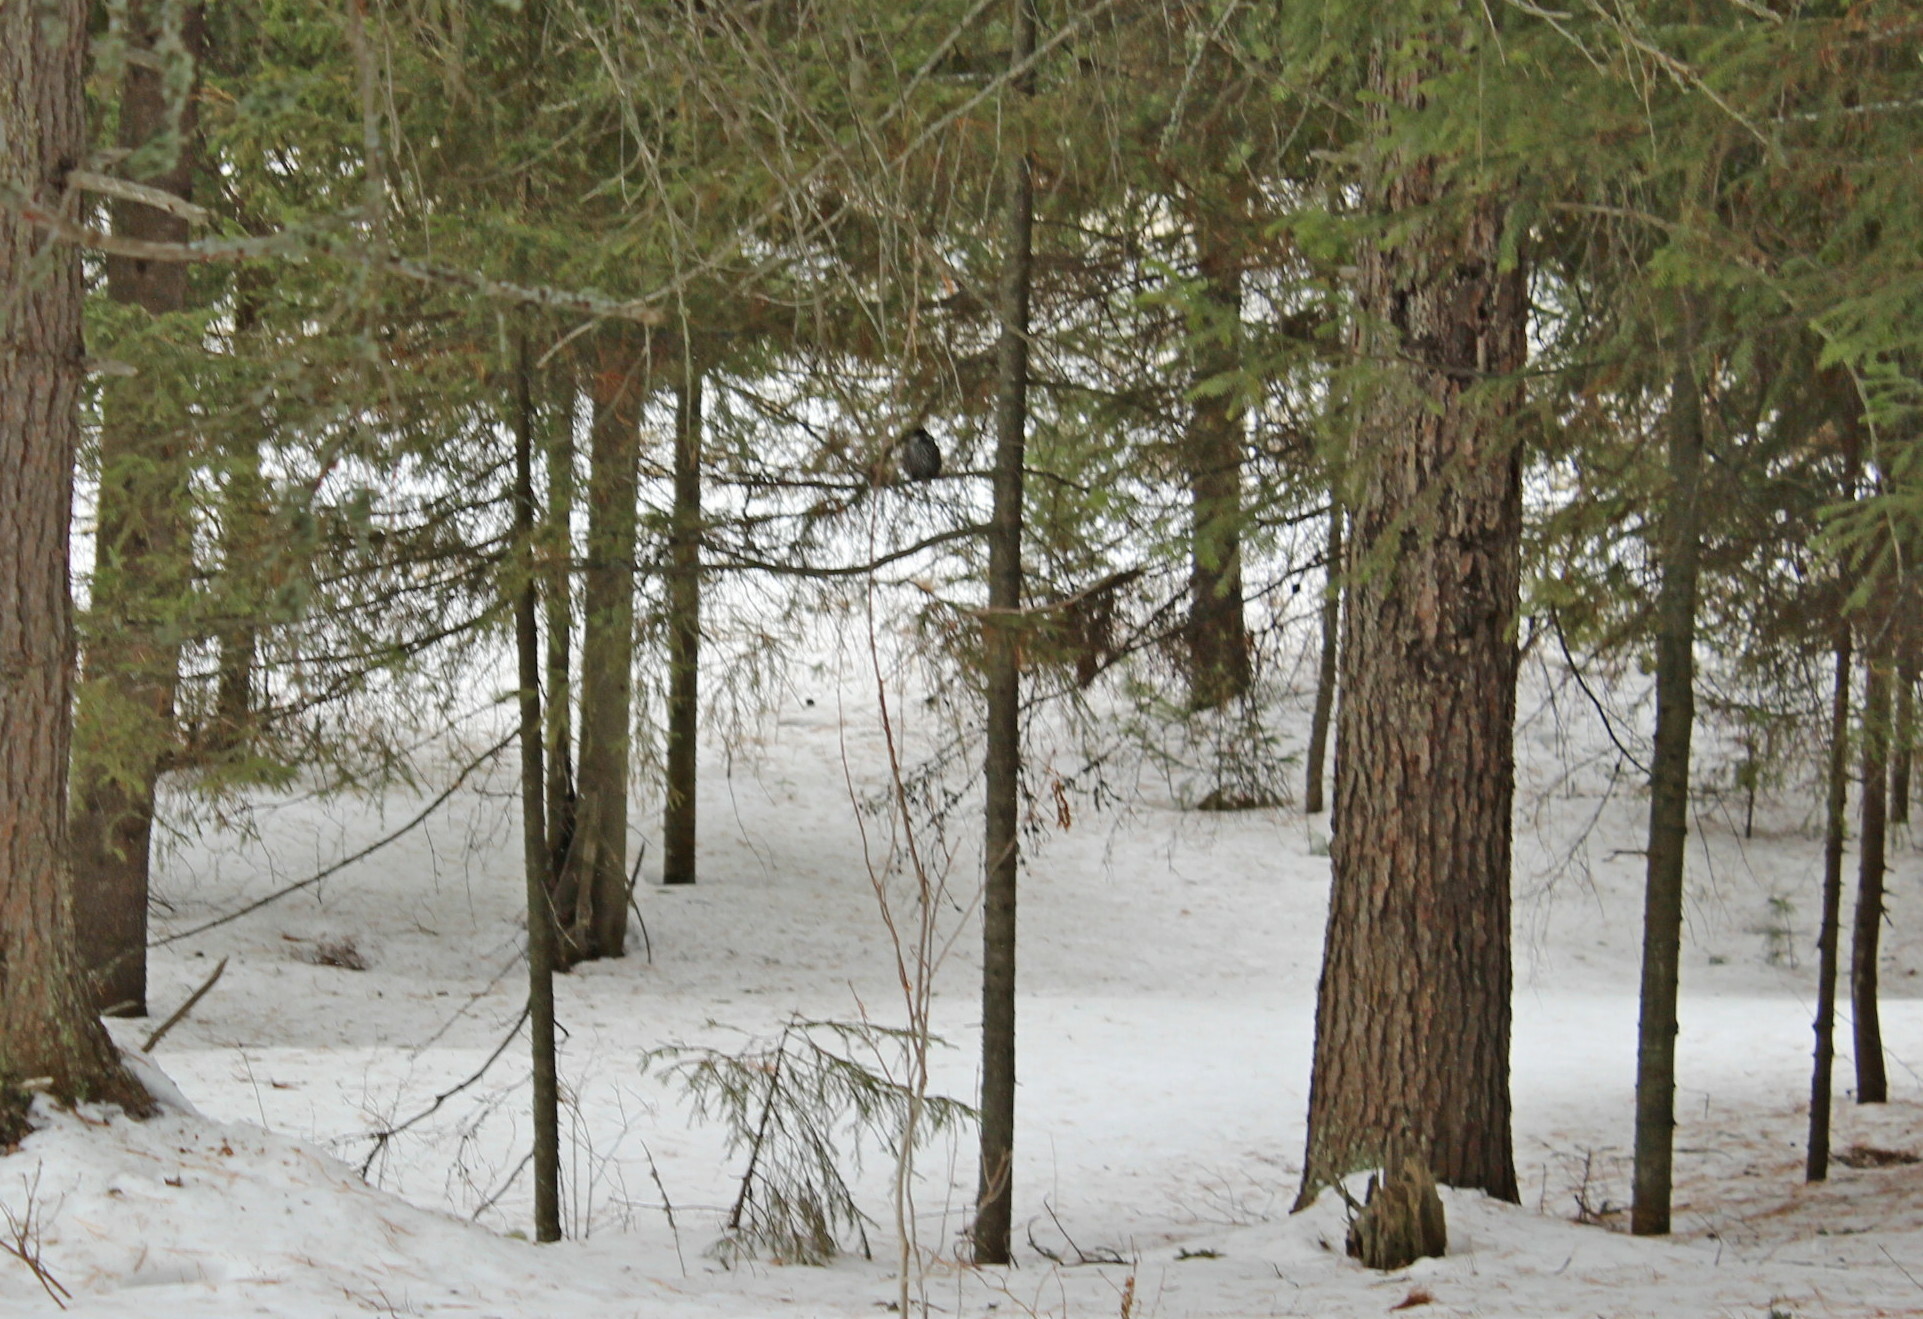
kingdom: Animalia
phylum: Chordata
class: Aves
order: Passeriformes
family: Corvidae
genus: Nucifraga
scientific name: Nucifraga caryocatactes
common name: Spotted nutcracker
